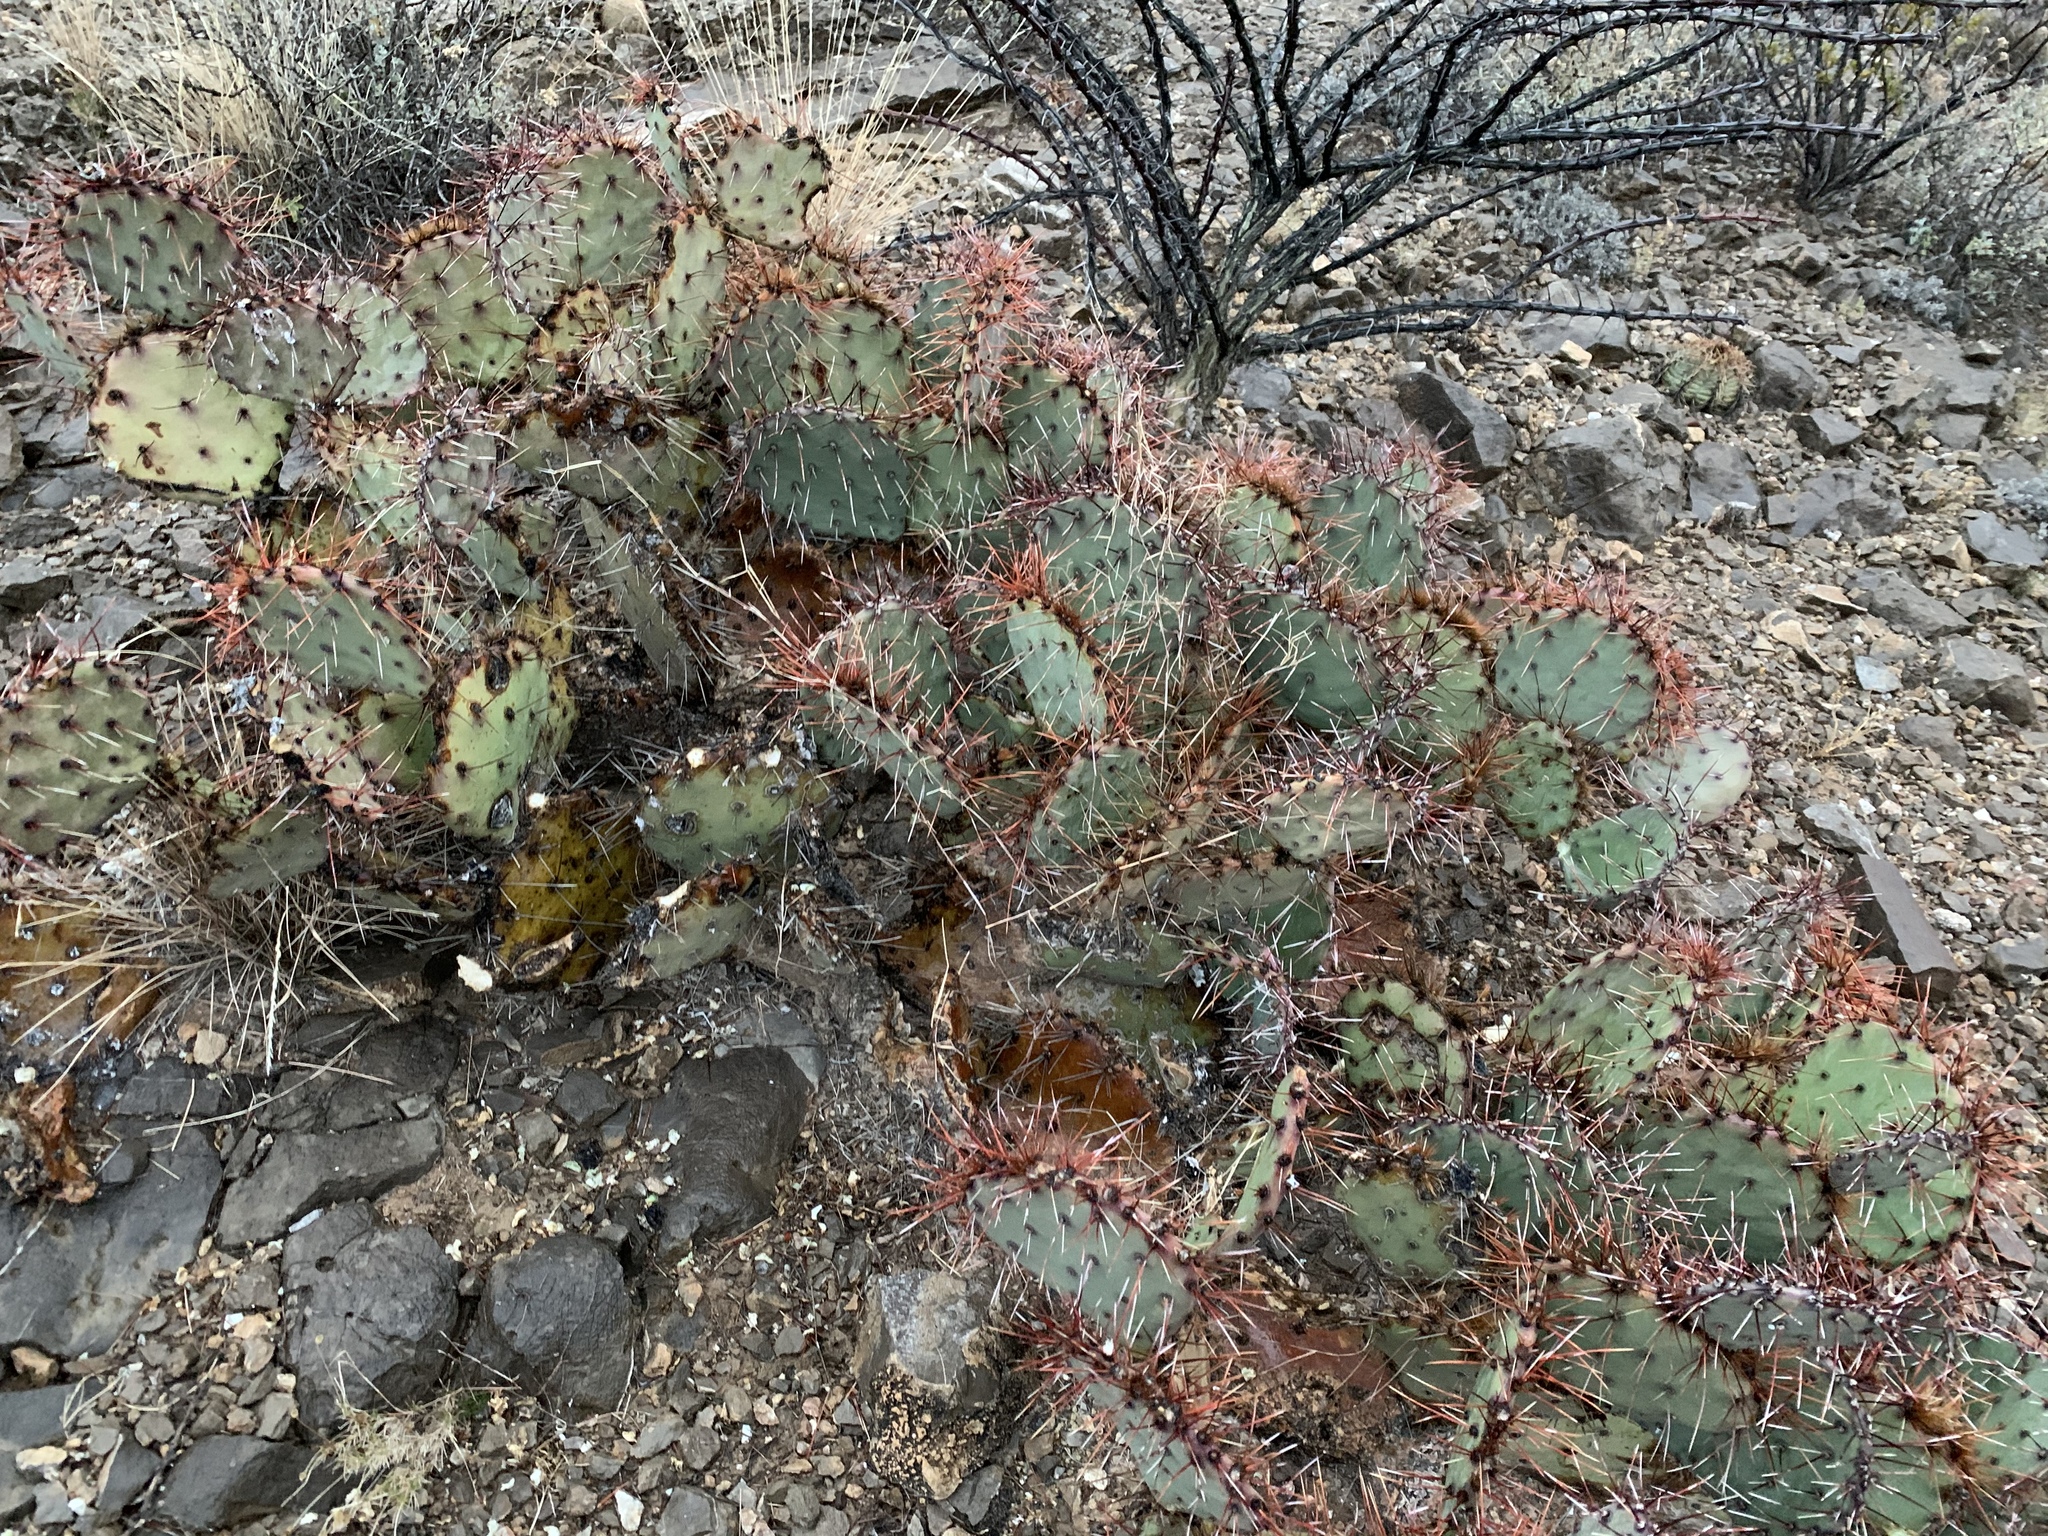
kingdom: Plantae
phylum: Tracheophyta
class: Magnoliopsida
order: Caryophyllales
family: Cactaceae
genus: Opuntia
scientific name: Opuntia macrocentra
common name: Purple prickly-pear
